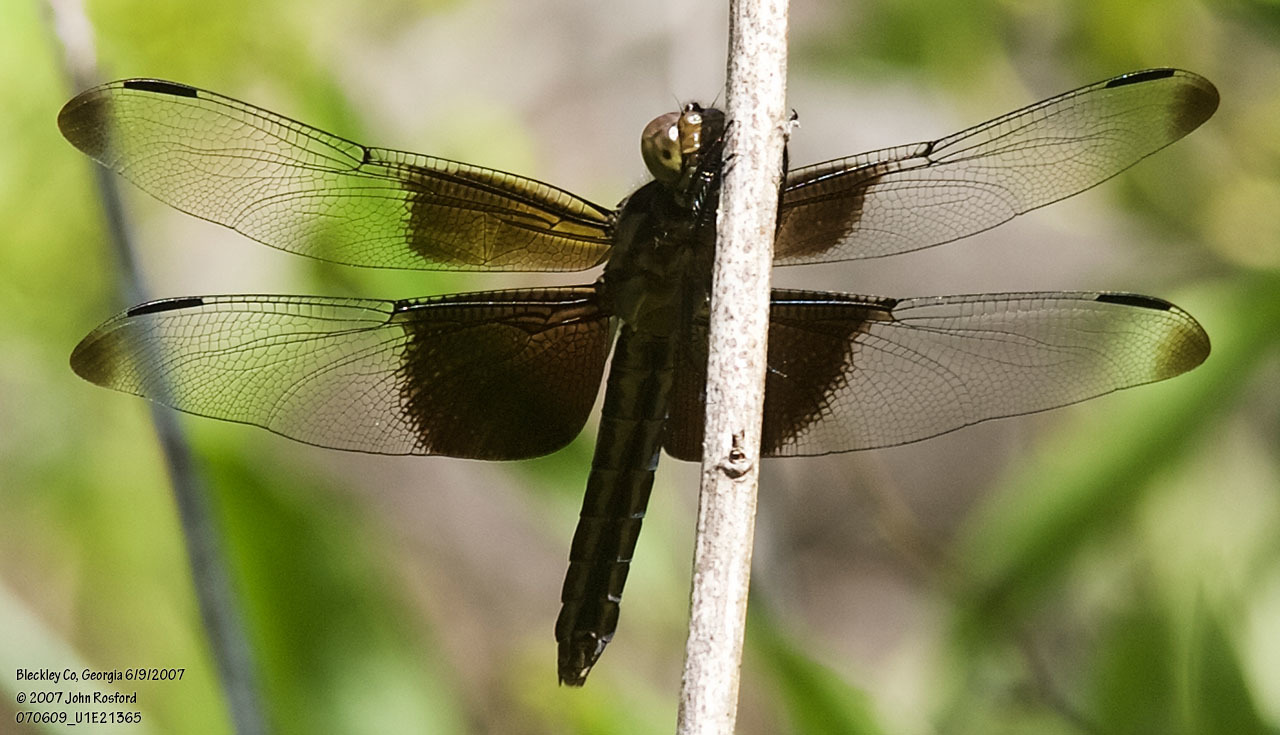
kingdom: Animalia
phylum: Arthropoda
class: Insecta
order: Odonata
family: Libellulidae
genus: Libellula
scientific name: Libellula luctuosa
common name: Widow skimmer
